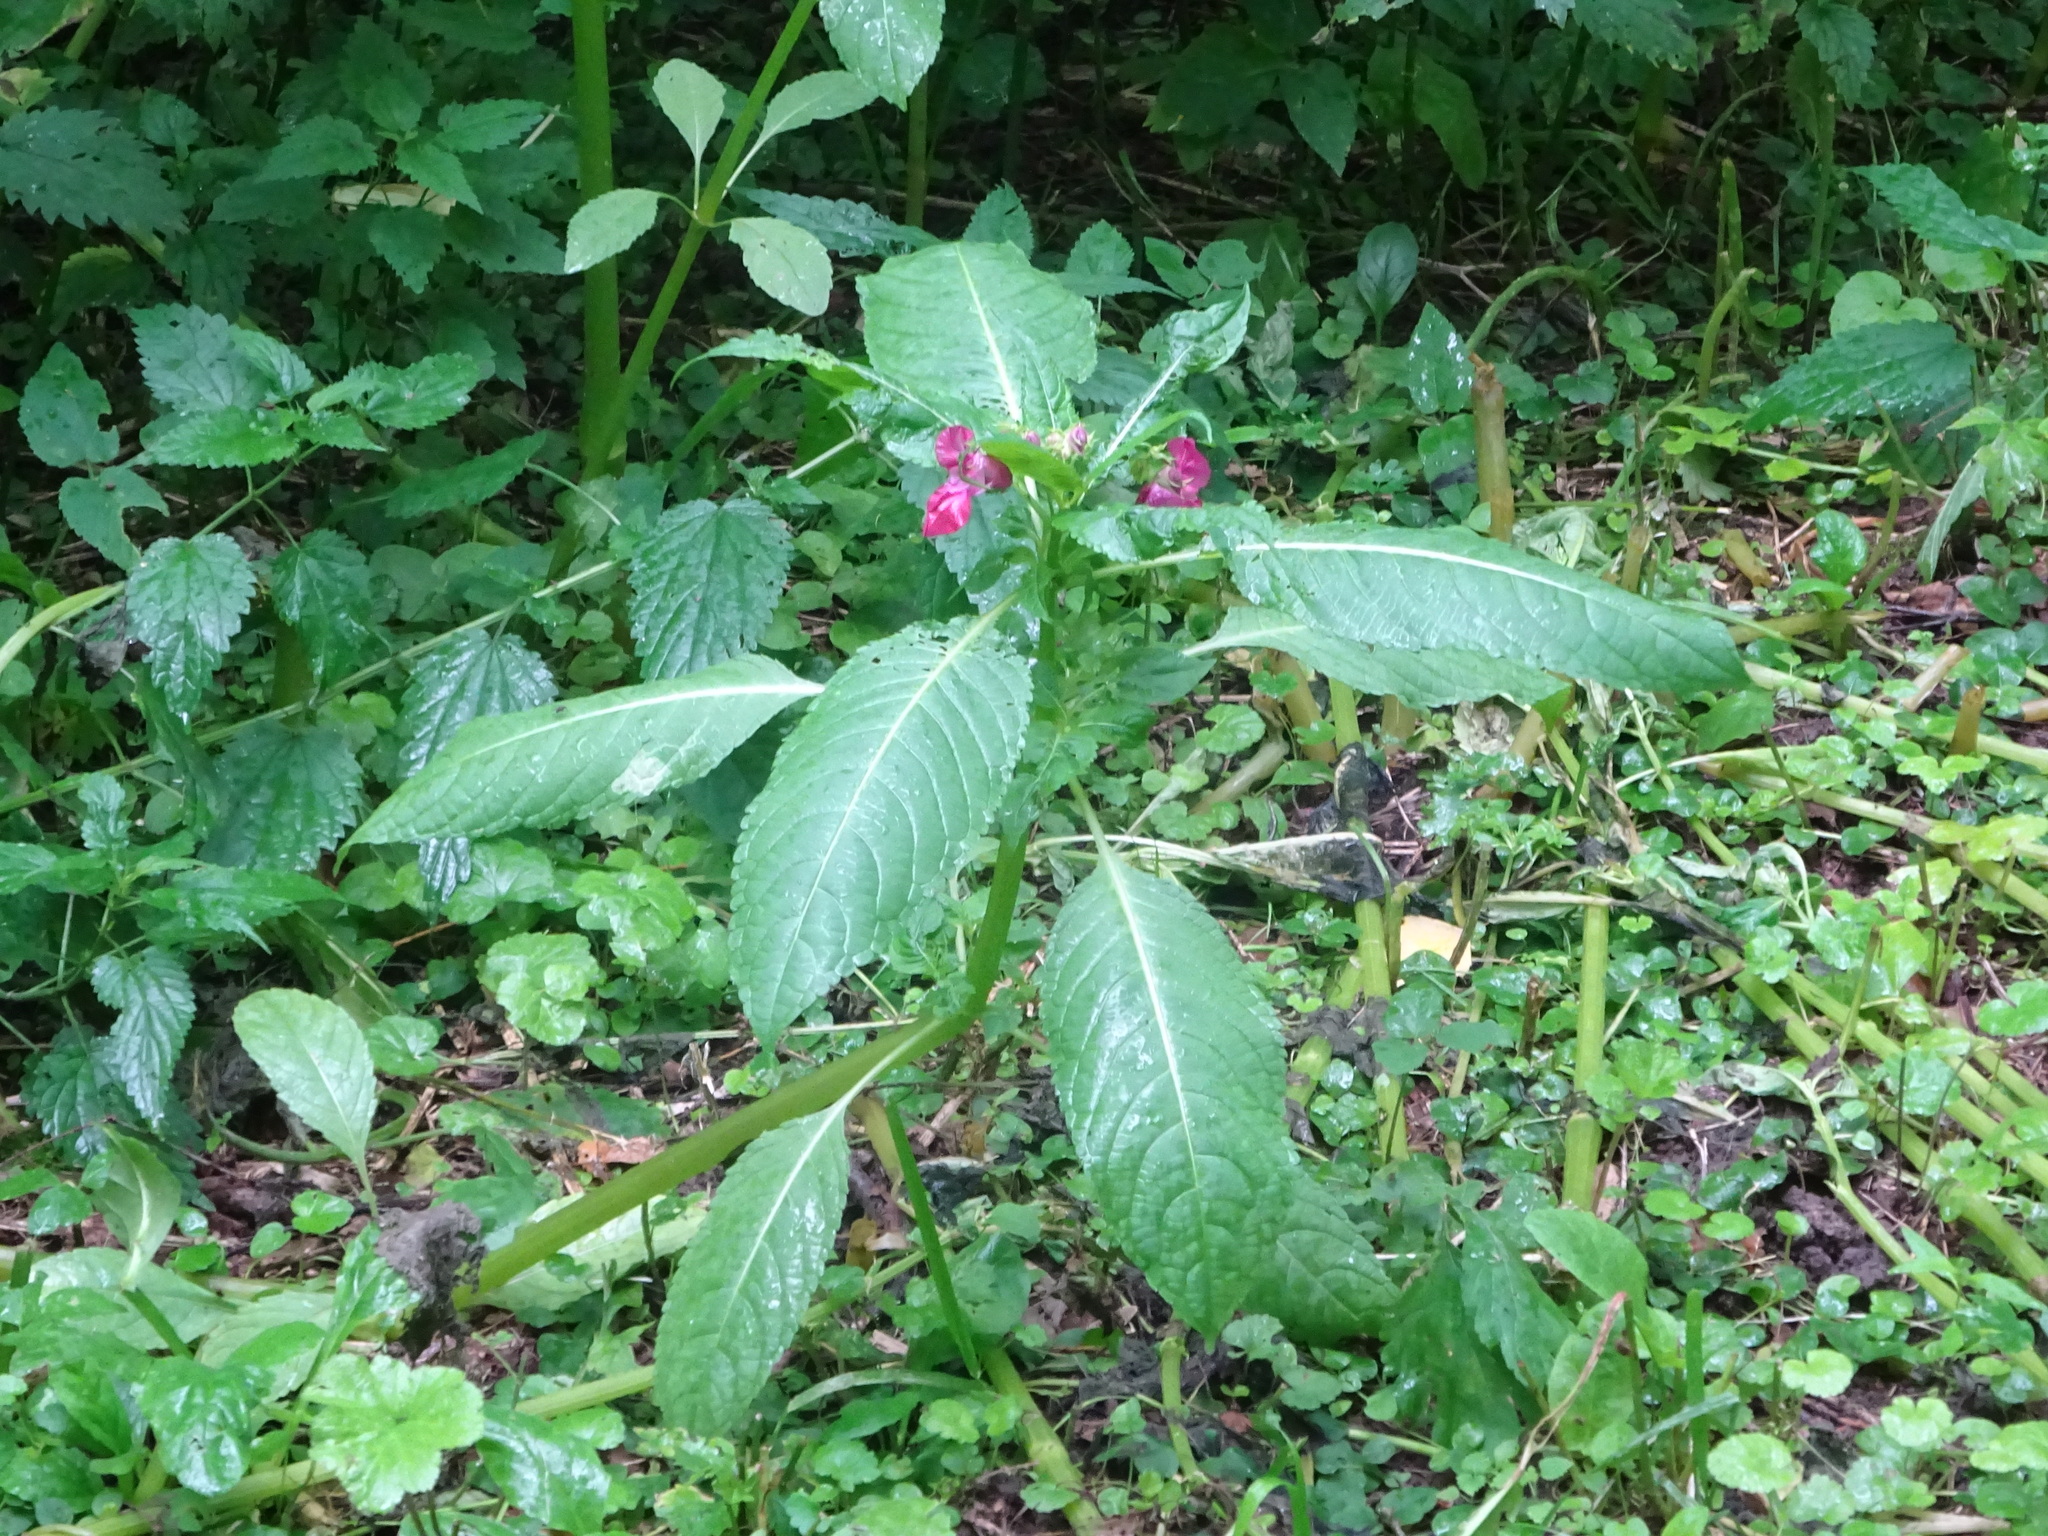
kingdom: Plantae
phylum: Tracheophyta
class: Magnoliopsida
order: Ericales
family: Balsaminaceae
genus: Impatiens
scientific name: Impatiens glandulifera
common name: Himalayan balsam
